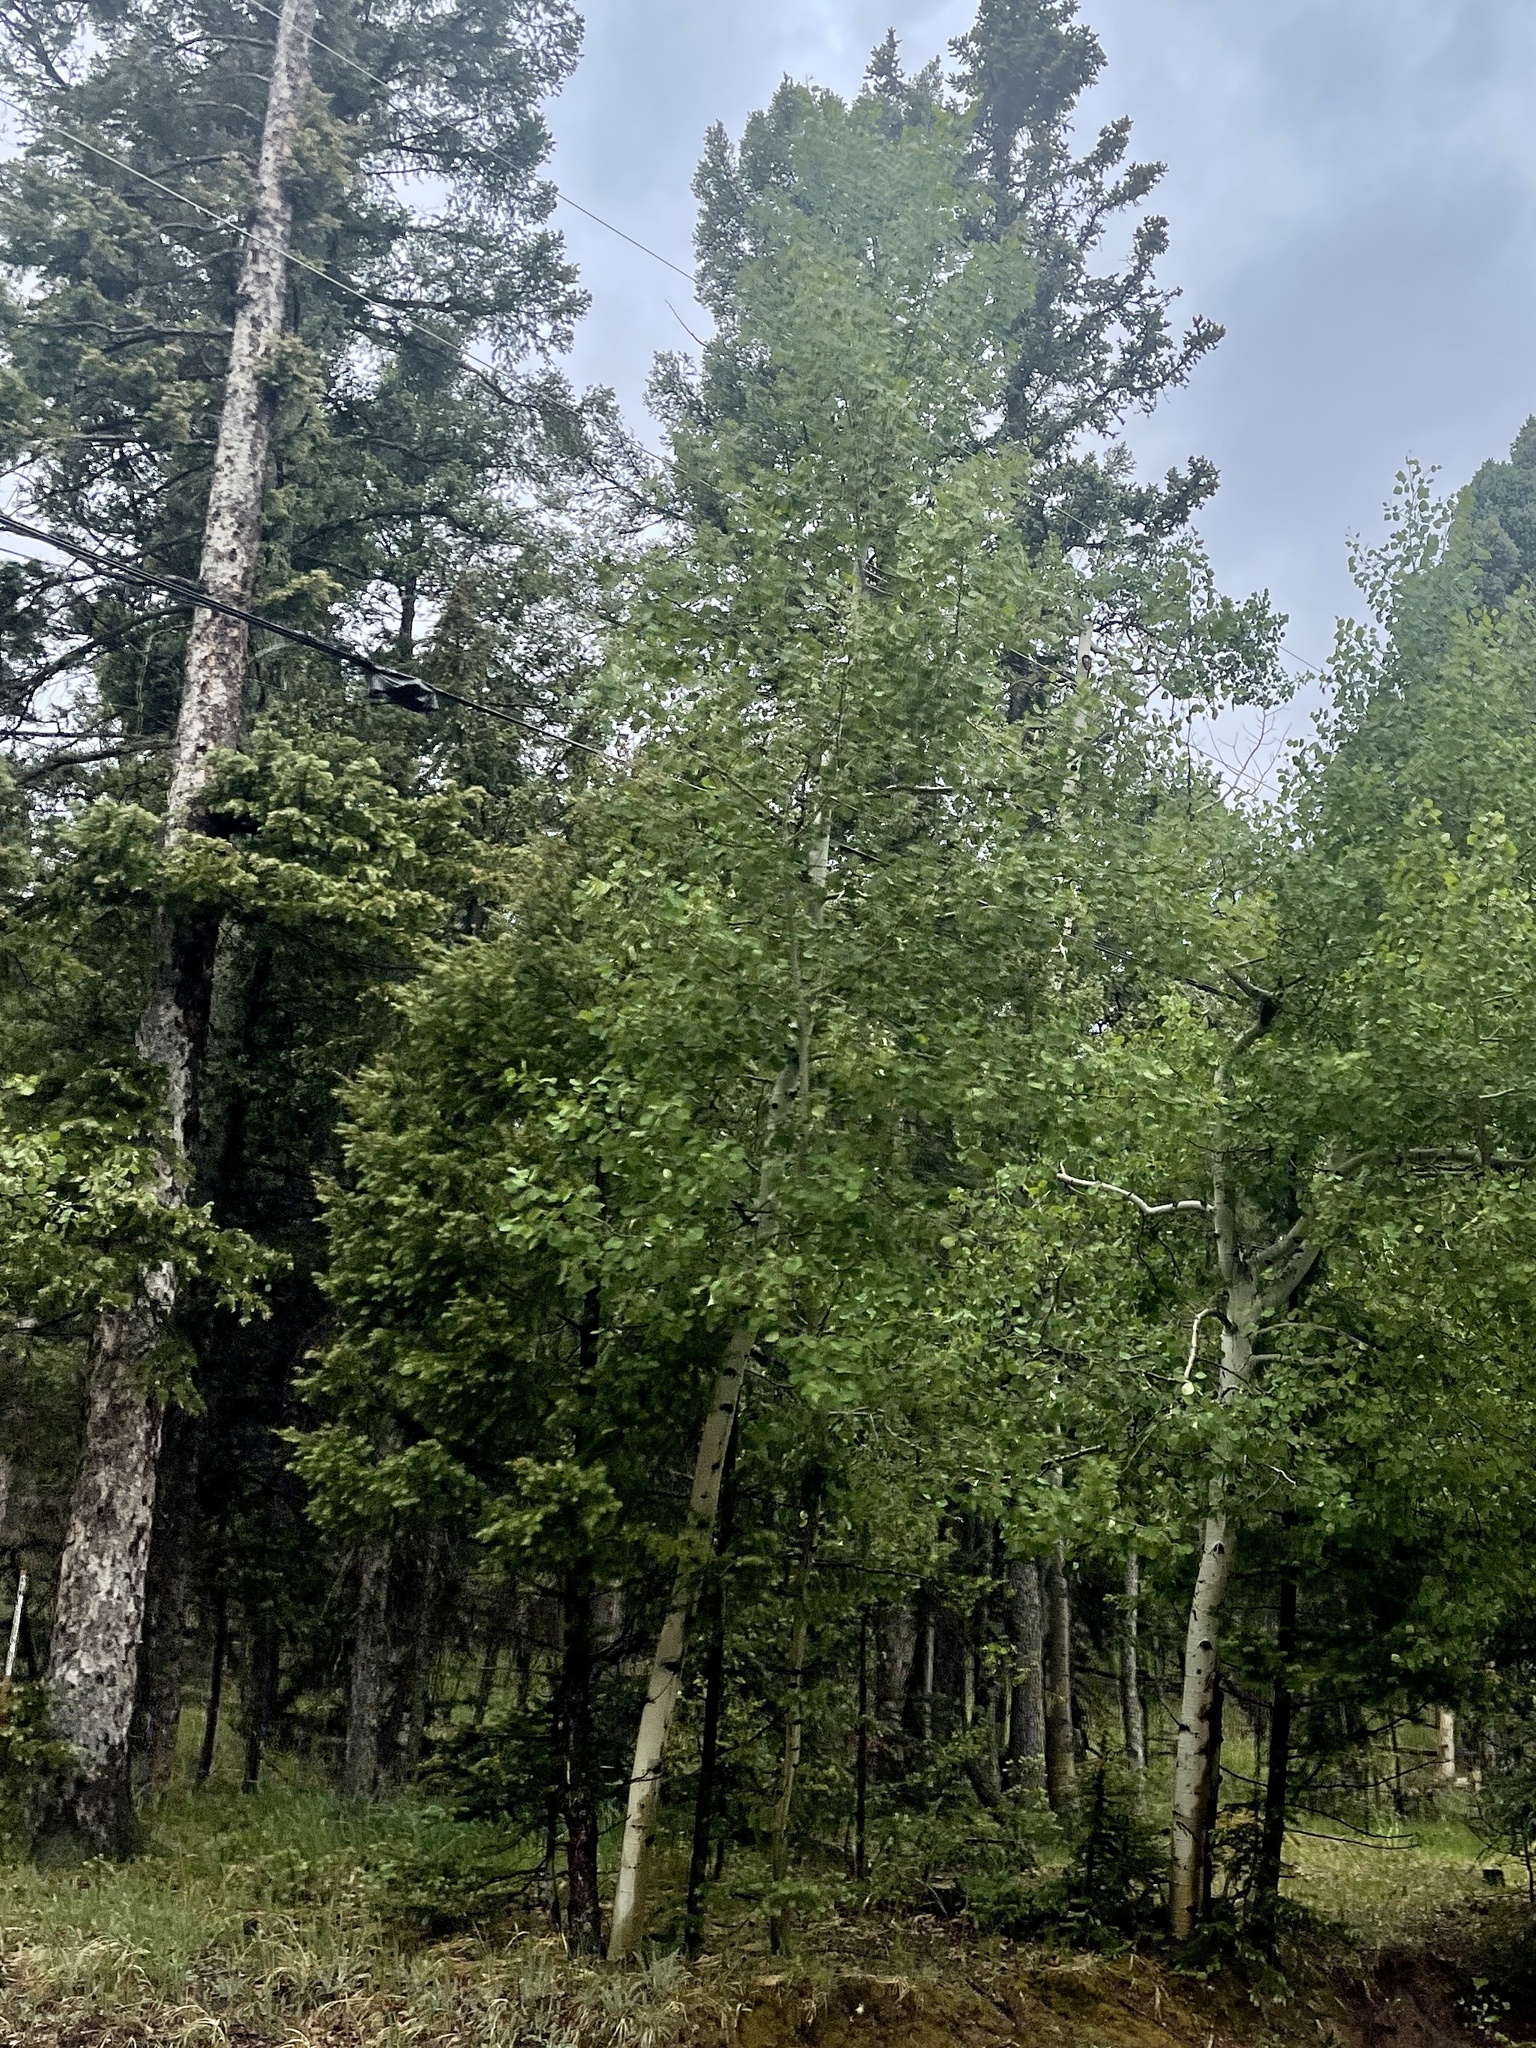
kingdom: Plantae
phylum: Tracheophyta
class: Magnoliopsida
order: Malpighiales
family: Salicaceae
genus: Populus
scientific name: Populus tremuloides
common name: Quaking aspen
